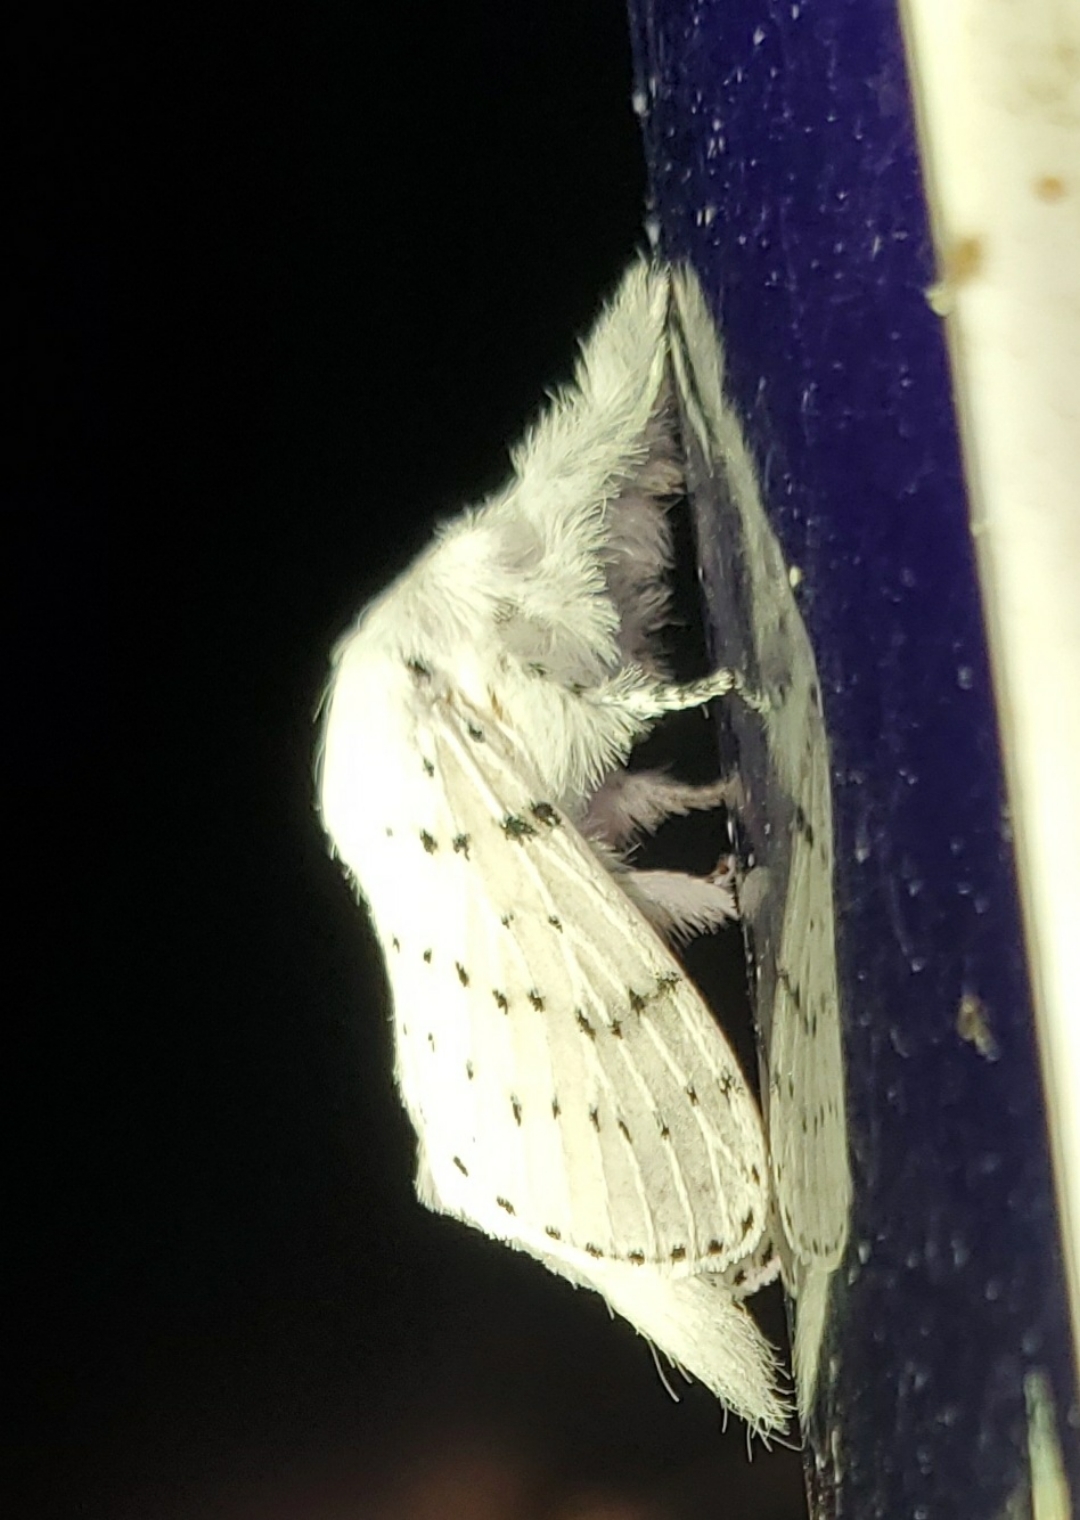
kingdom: Animalia
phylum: Arthropoda
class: Insecta
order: Lepidoptera
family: Lasiocampidae
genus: Artace
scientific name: Artace cribrarius
